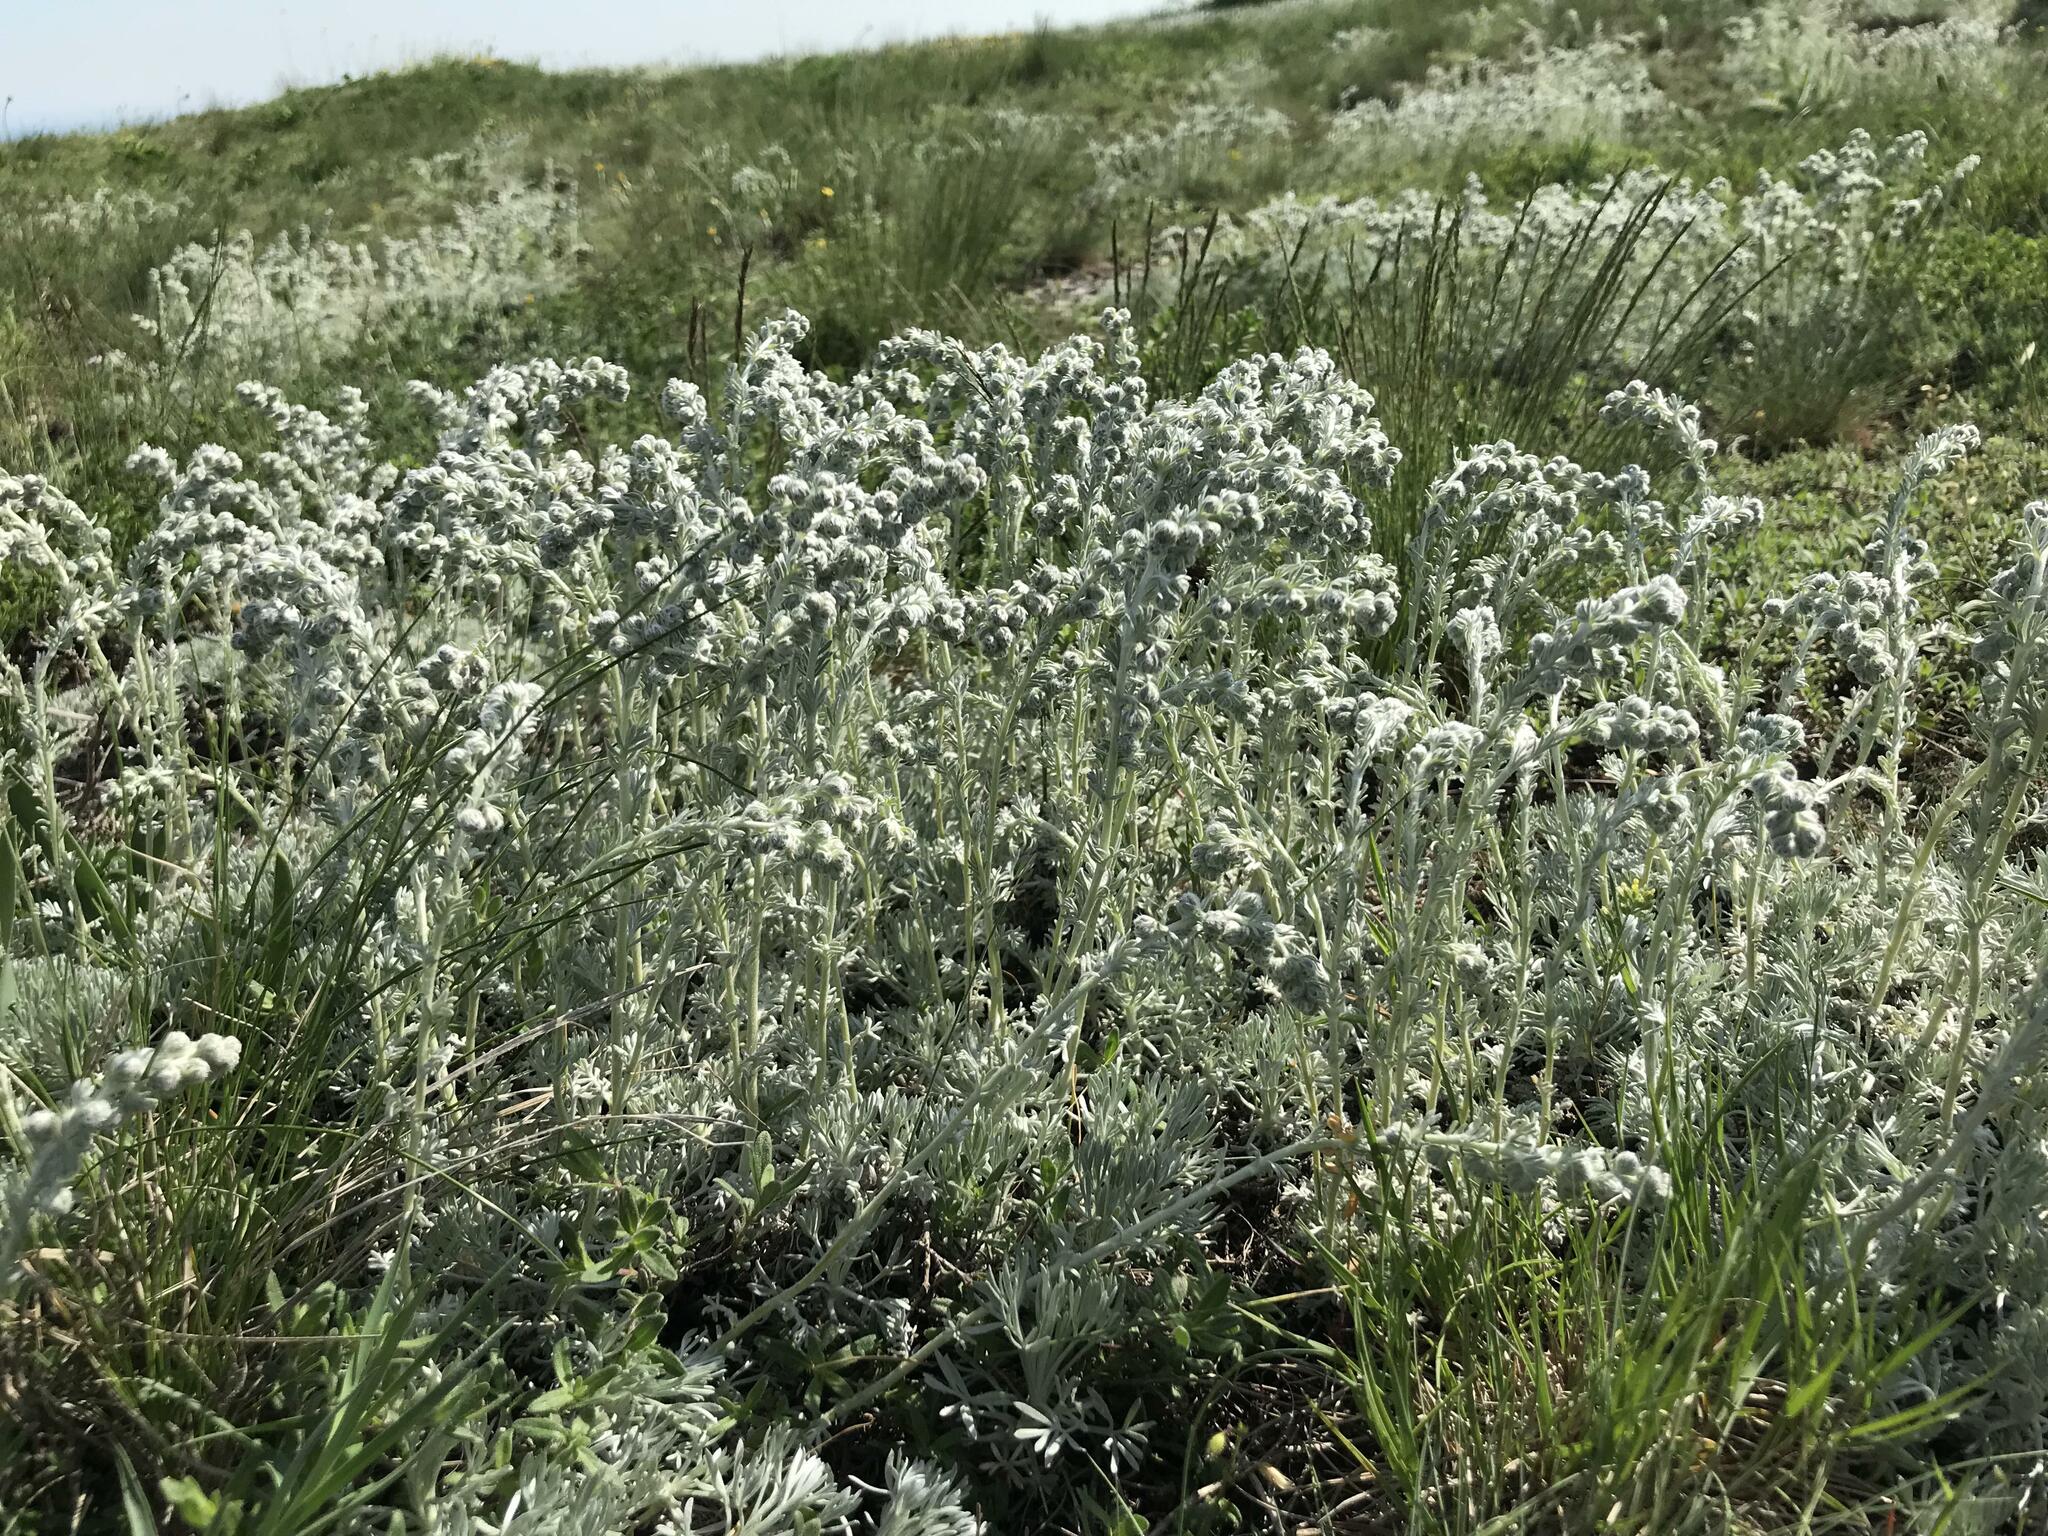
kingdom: Plantae
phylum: Tracheophyta
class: Magnoliopsida
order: Asterales
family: Asteraceae
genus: Artemisia
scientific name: Artemisia alpina
